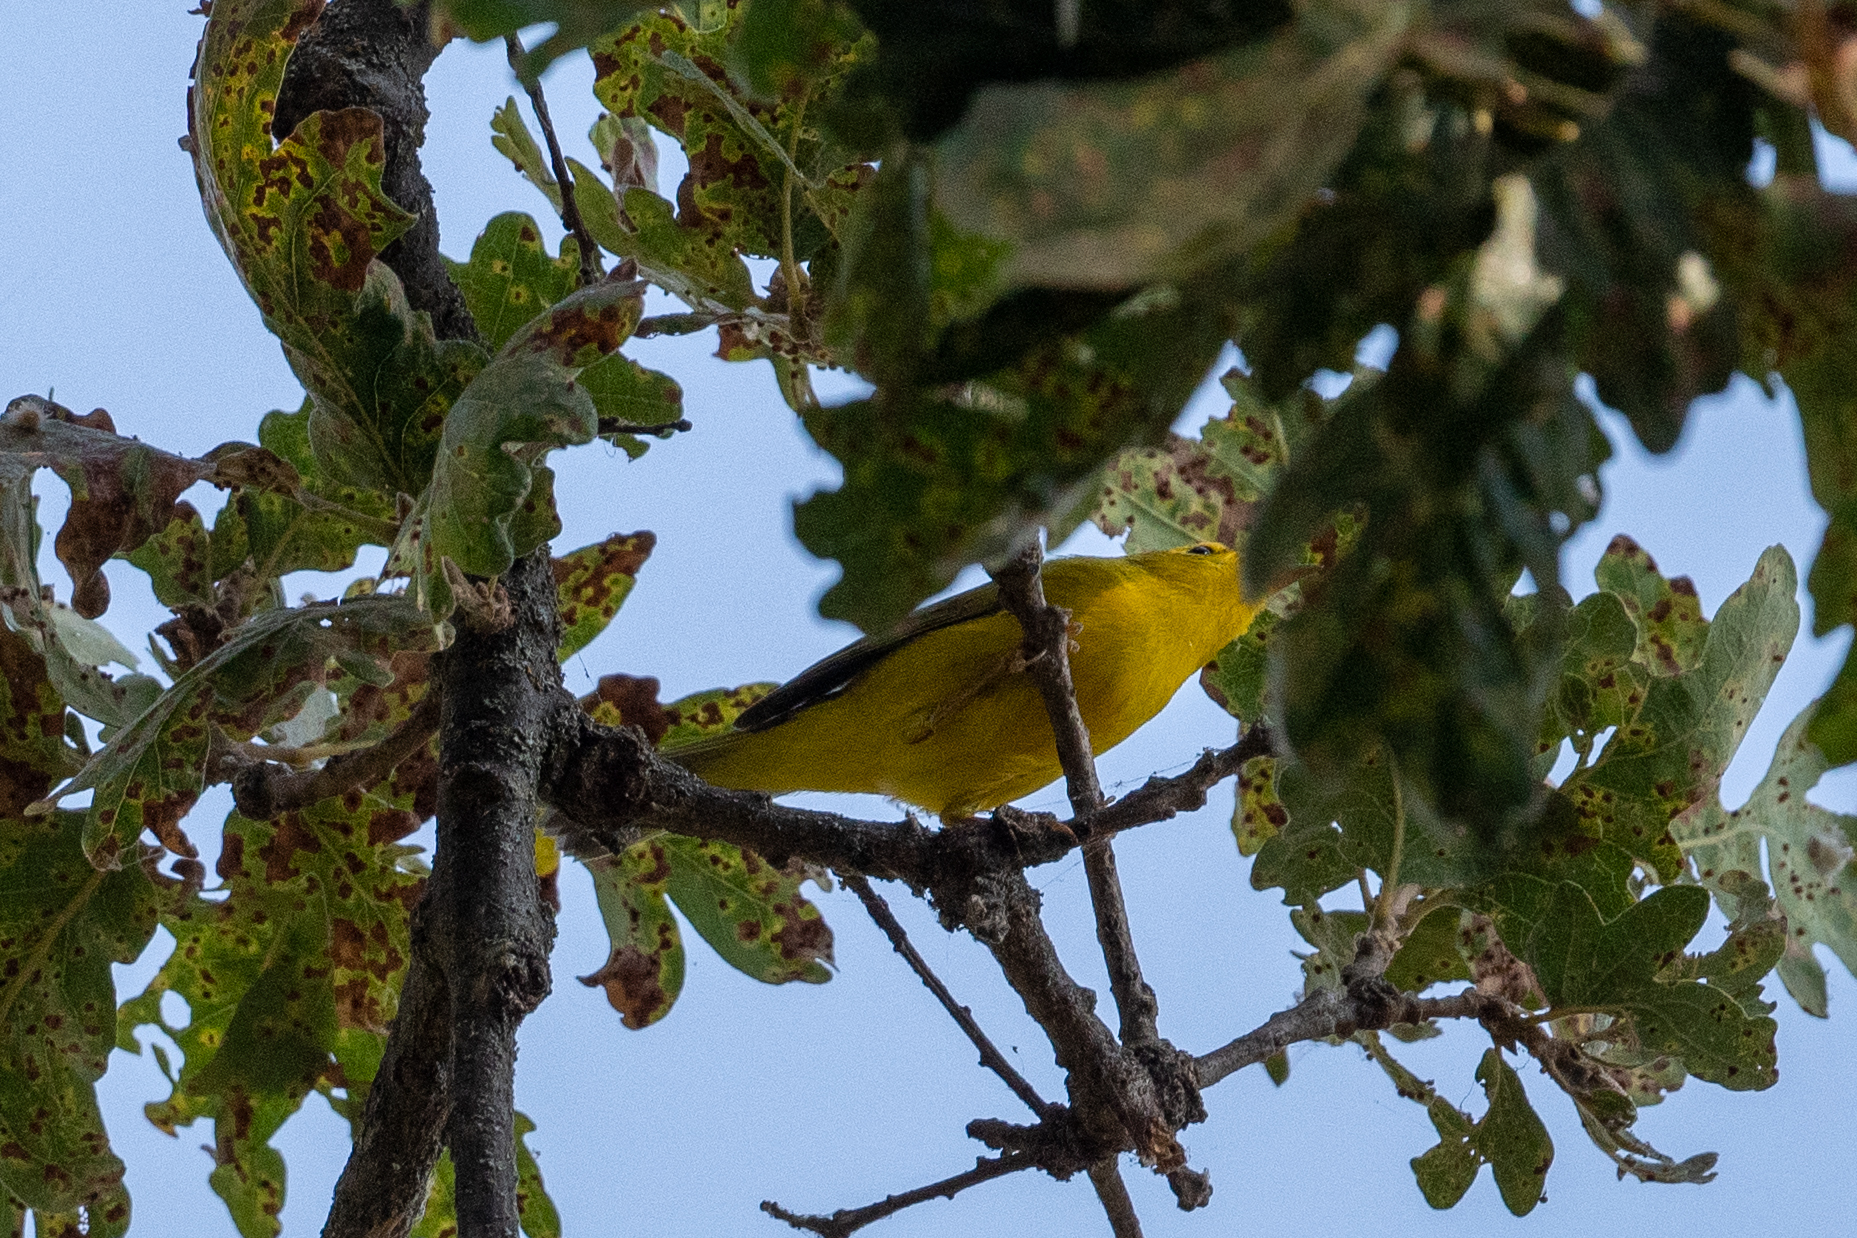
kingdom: Animalia
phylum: Chordata
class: Aves
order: Passeriformes
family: Parulidae
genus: Cardellina
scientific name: Cardellina pusilla
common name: Wilson's warbler
